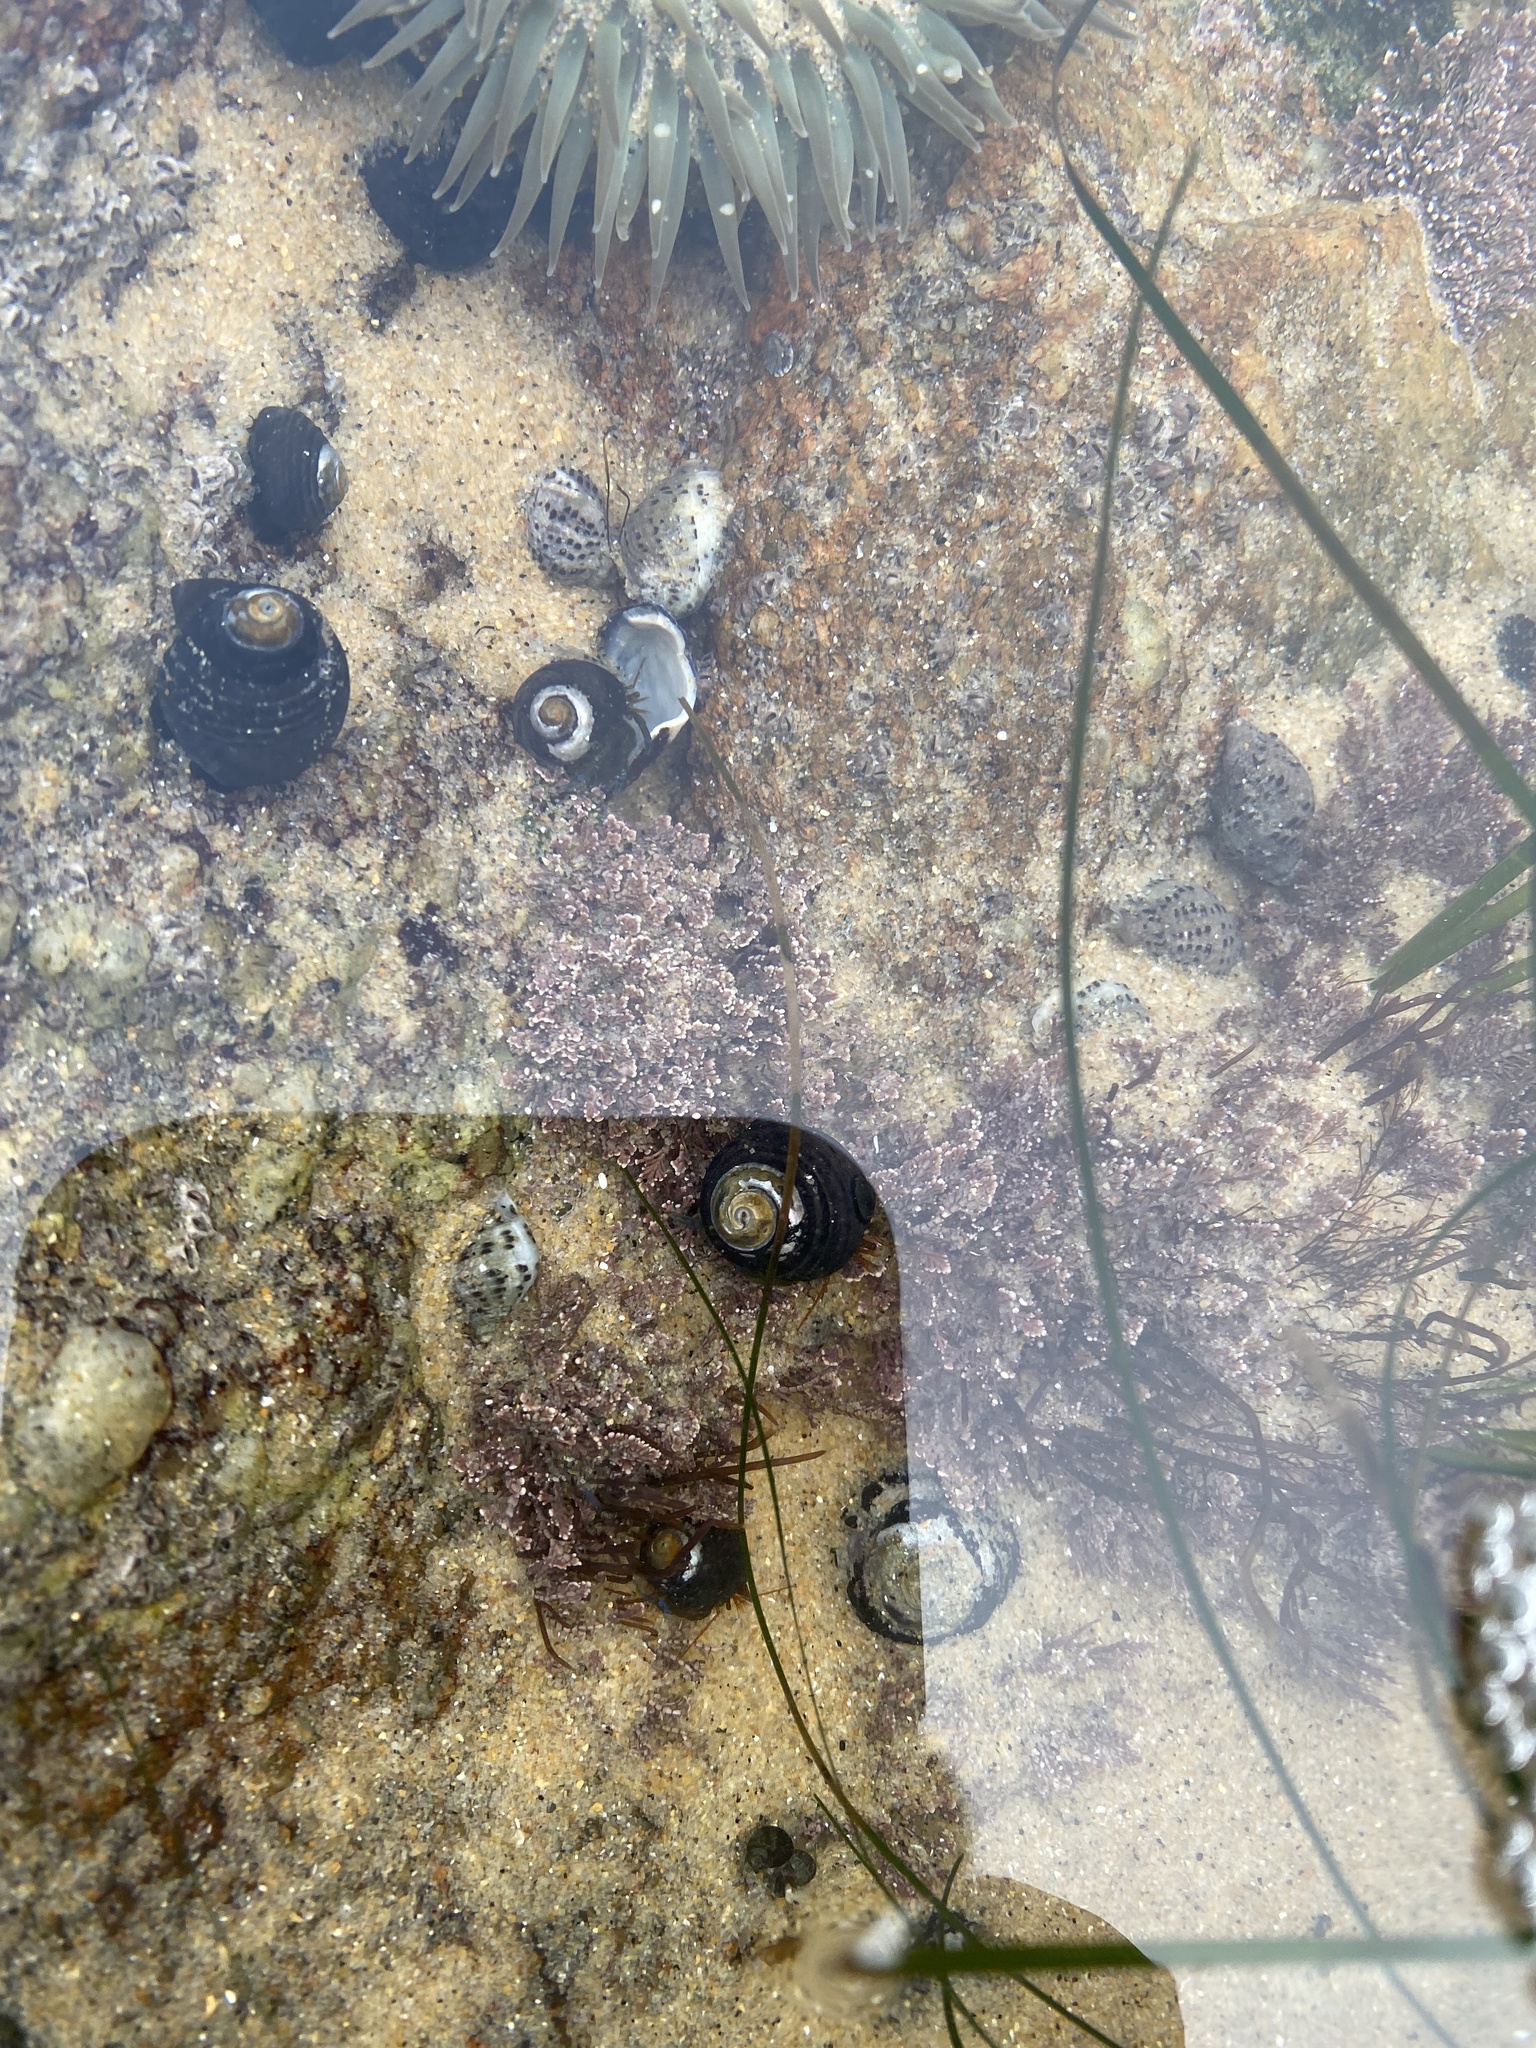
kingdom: Animalia
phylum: Mollusca
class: Gastropoda
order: Trochida
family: Tegulidae
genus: Tegula
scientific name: Tegula funebralis
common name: Black tegula
